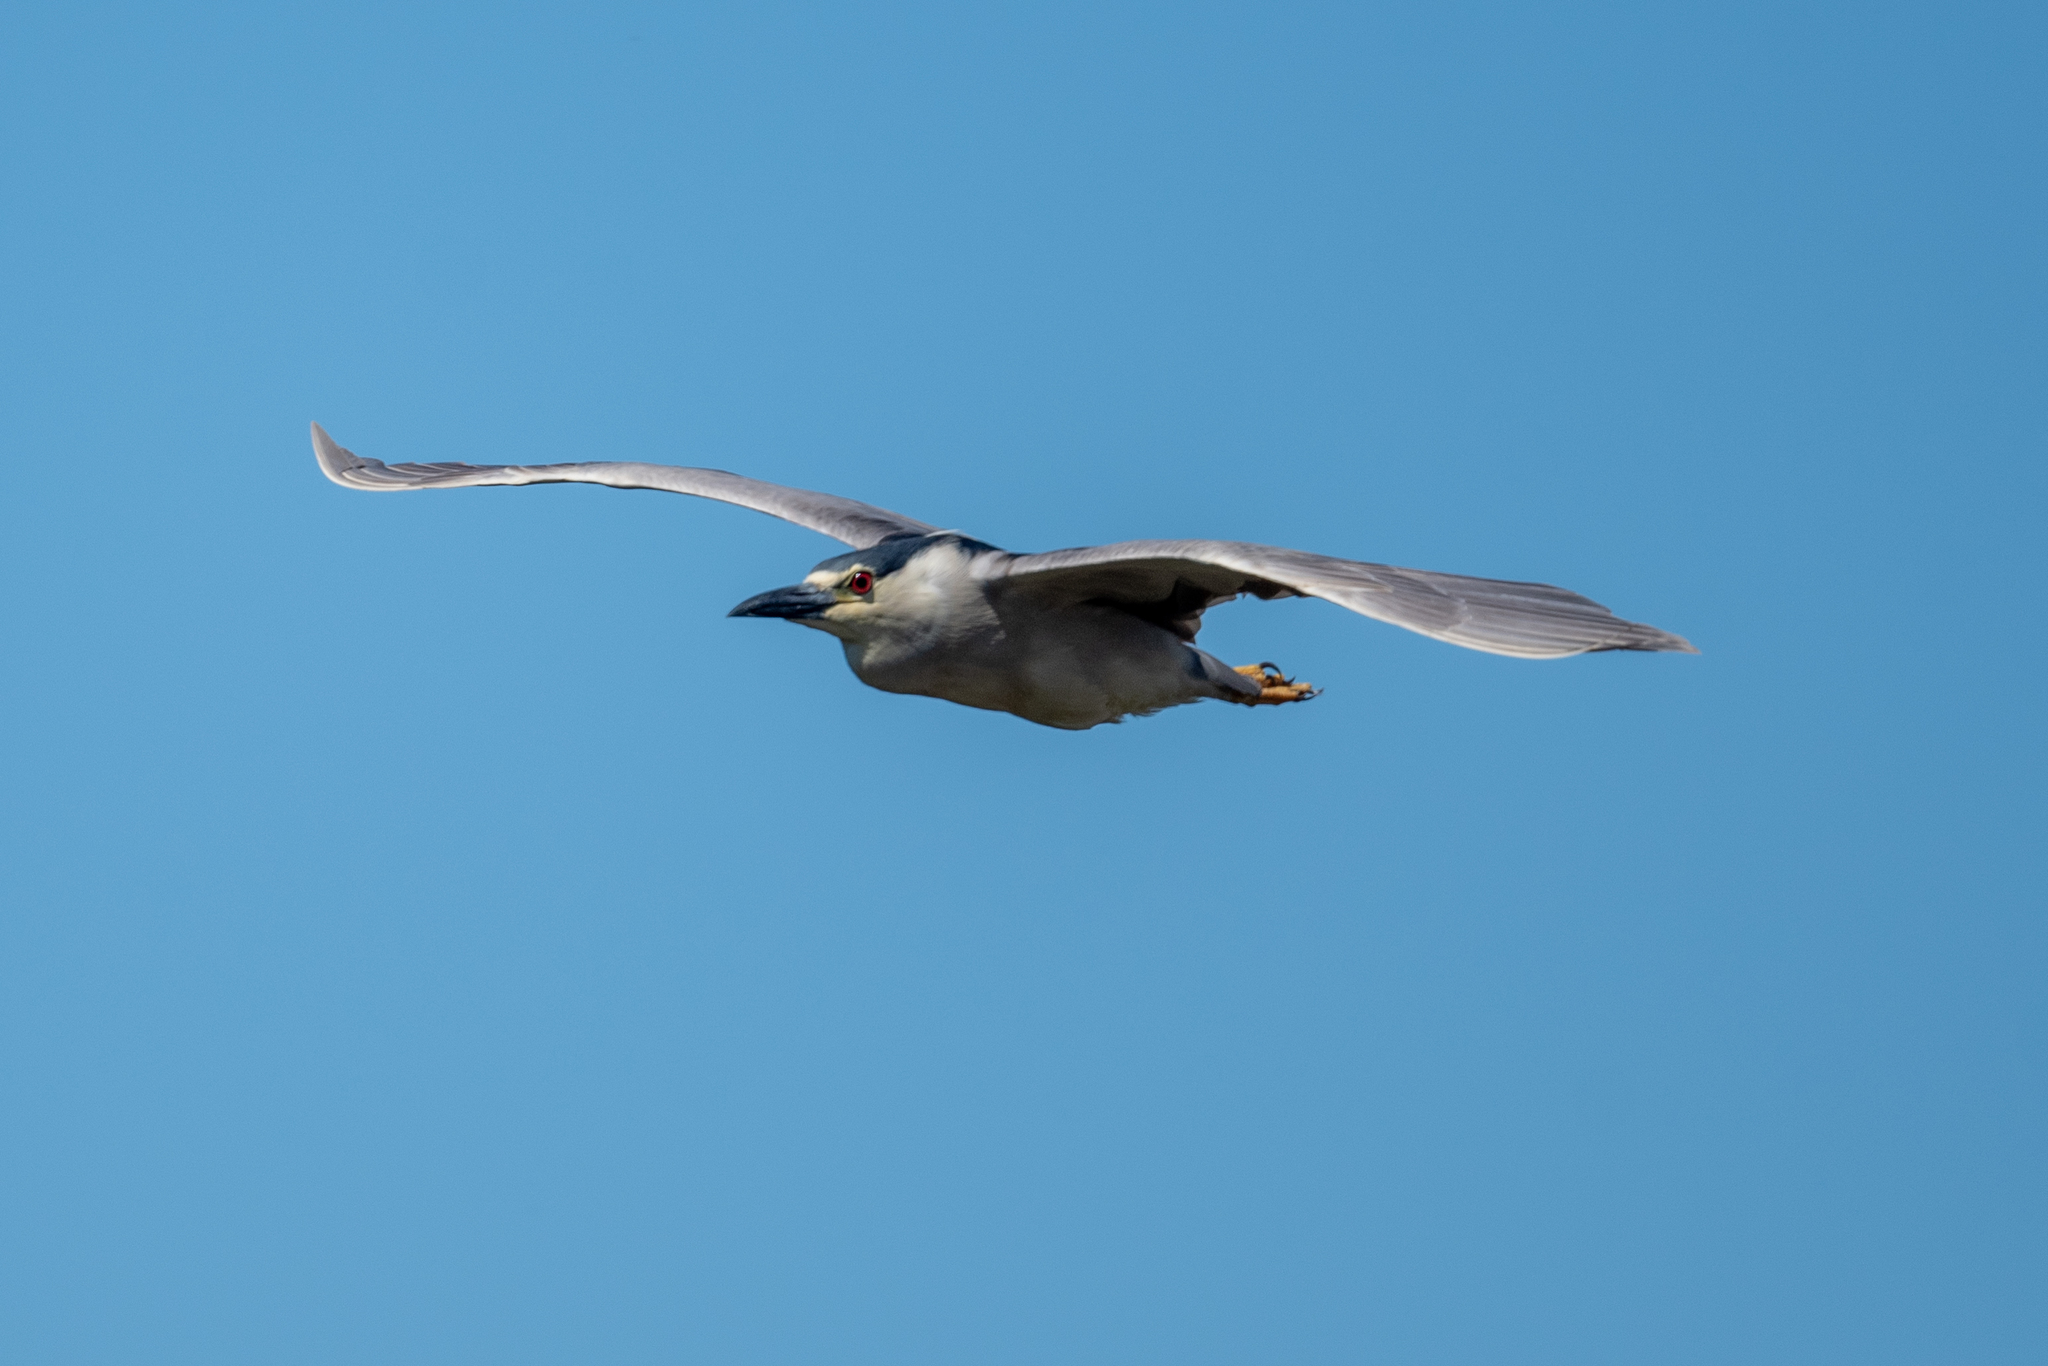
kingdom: Animalia
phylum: Chordata
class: Aves
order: Pelecaniformes
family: Ardeidae
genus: Nycticorax
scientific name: Nycticorax nycticorax
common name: Black-crowned night heron
